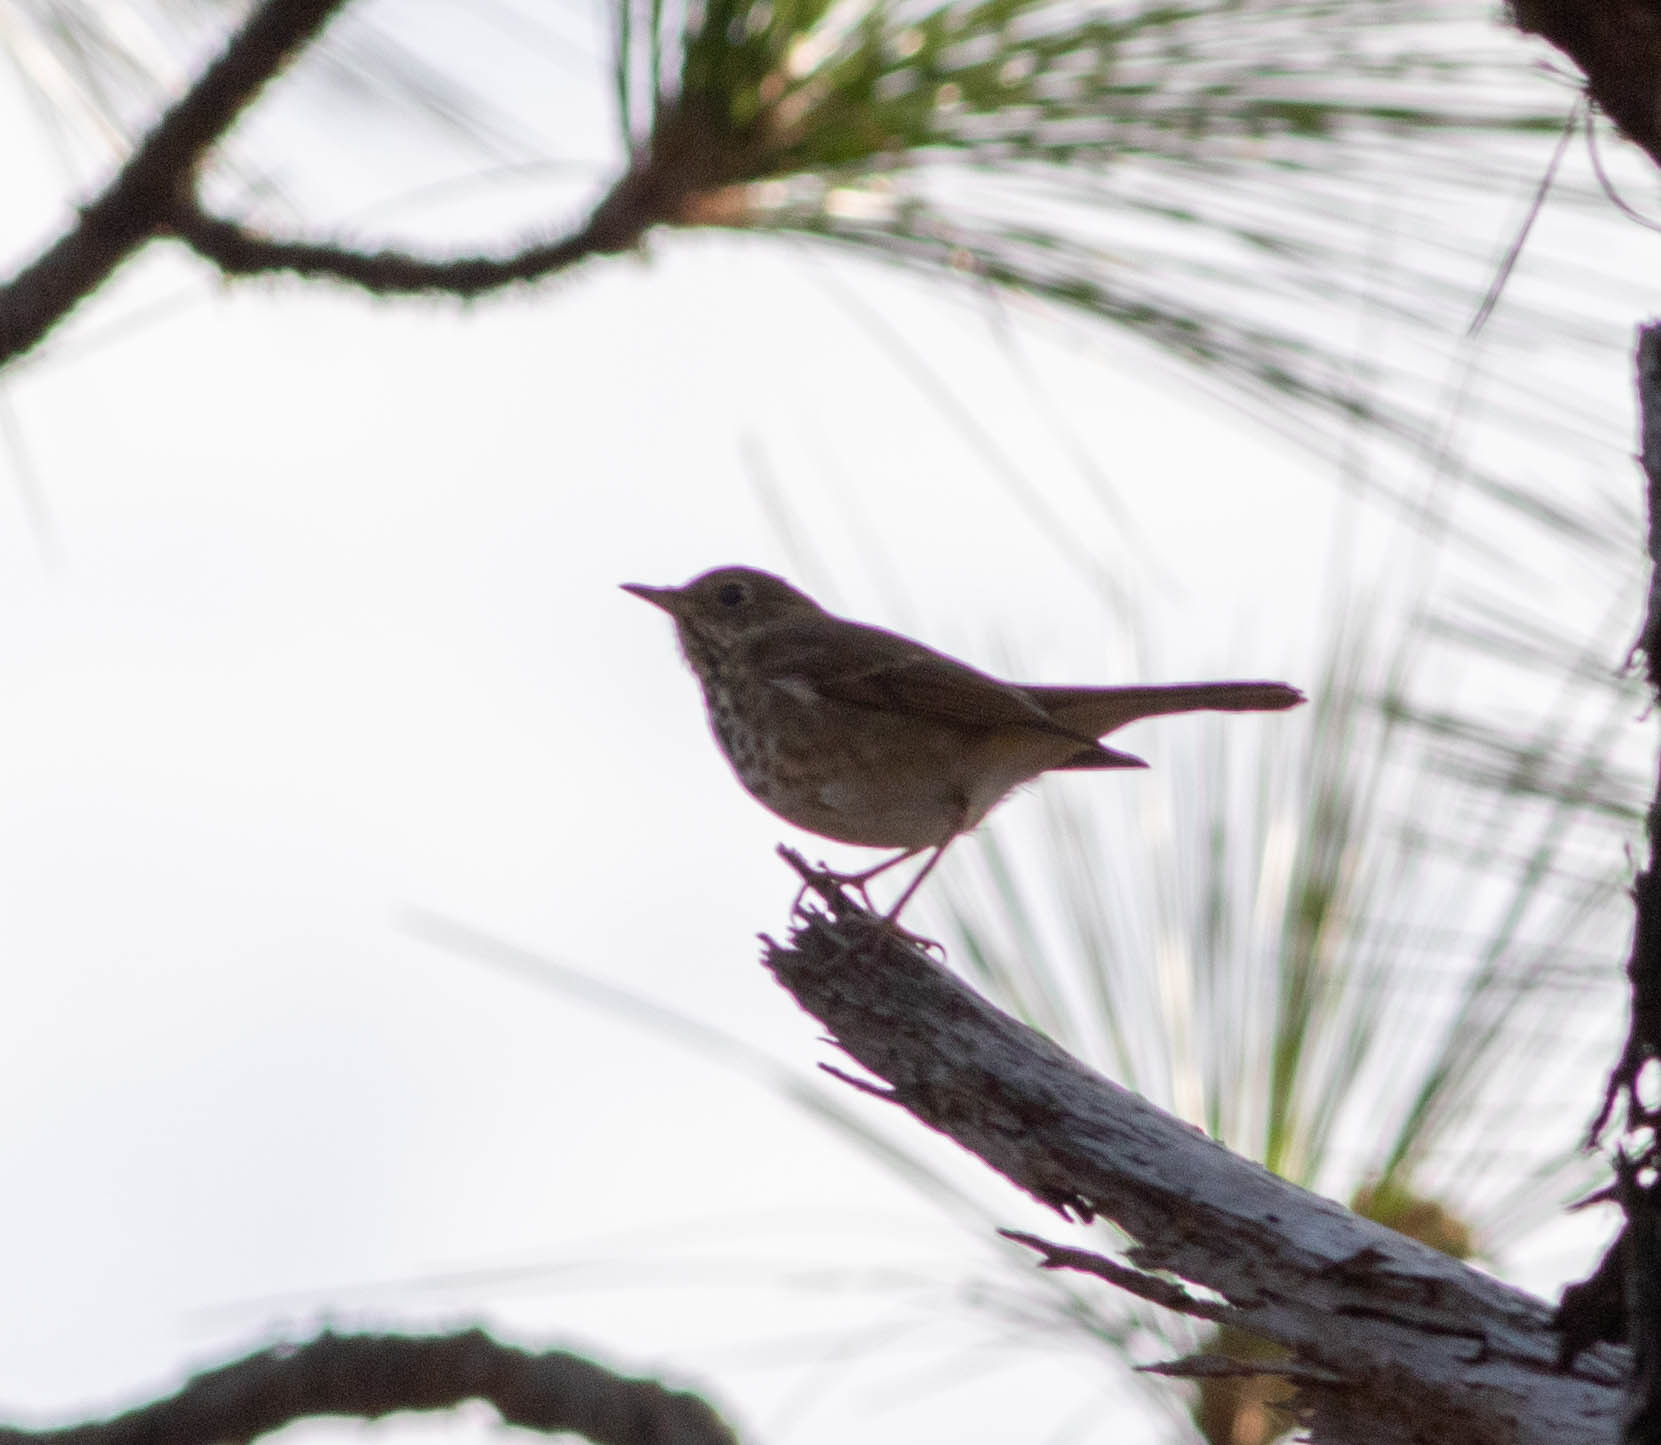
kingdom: Animalia
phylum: Chordata
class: Aves
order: Passeriformes
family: Turdidae
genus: Catharus
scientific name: Catharus guttatus
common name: Hermit thrush
